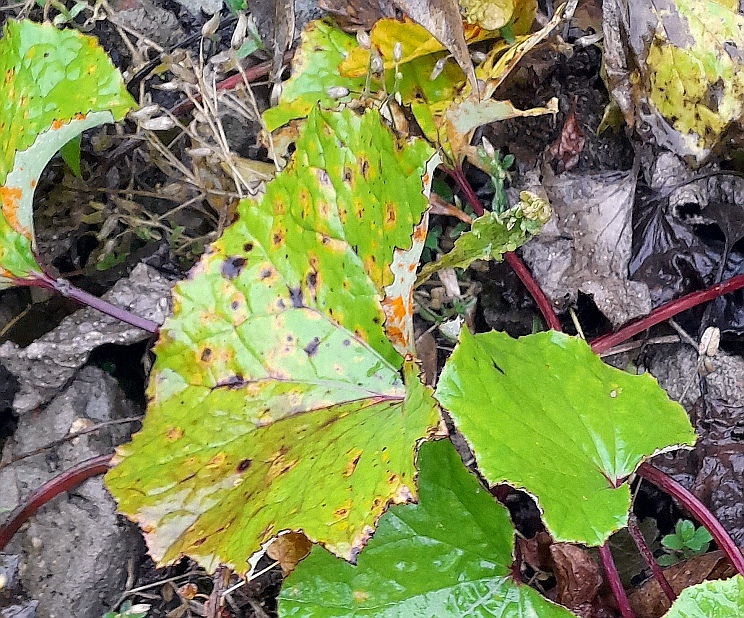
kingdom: Plantae
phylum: Tracheophyta
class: Magnoliopsida
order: Asterales
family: Asteraceae
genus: Tussilago
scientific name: Tussilago farfara
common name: Coltsfoot
